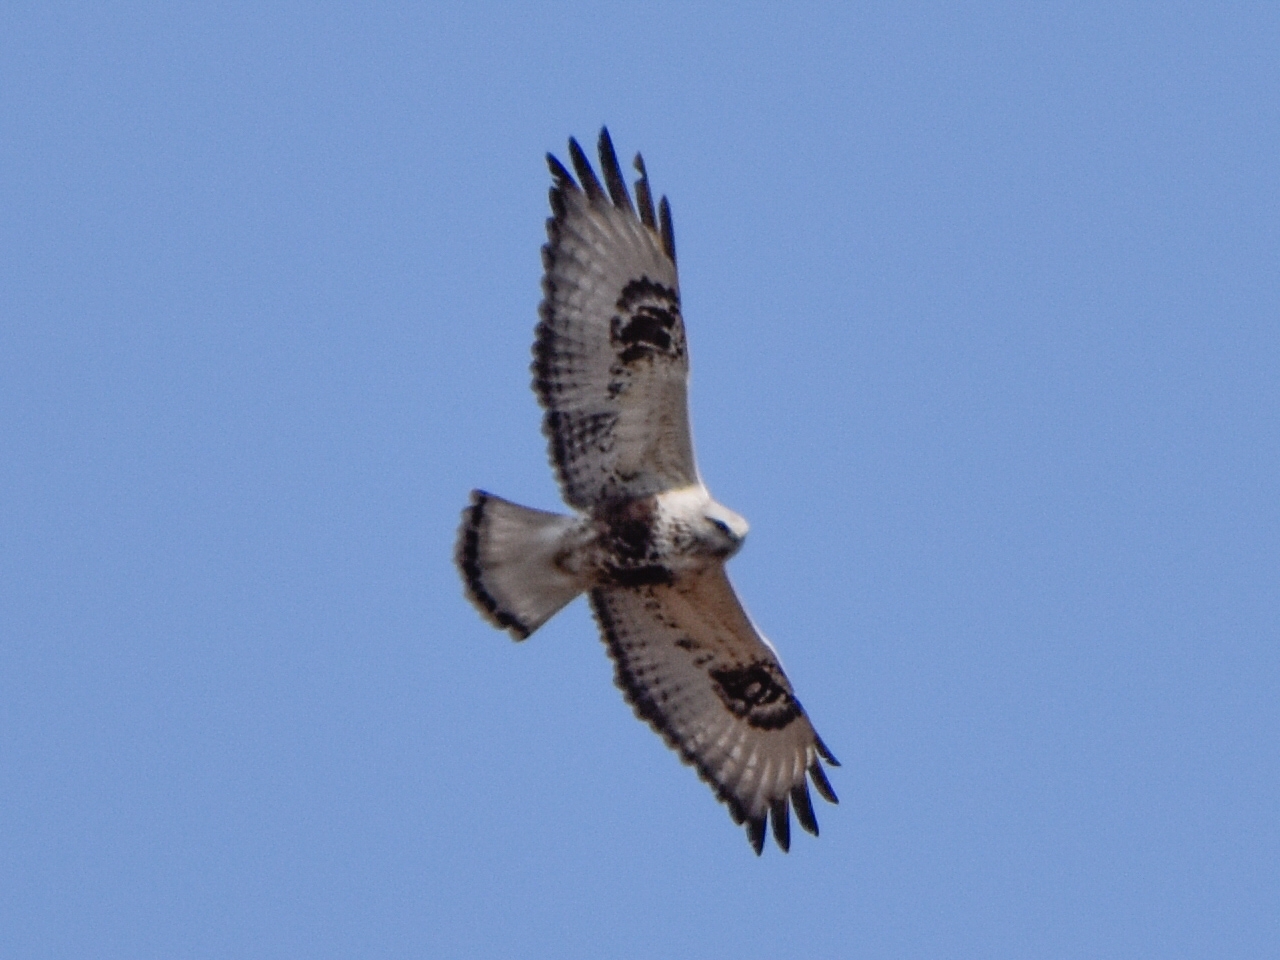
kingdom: Animalia
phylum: Chordata
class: Aves
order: Accipitriformes
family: Accipitridae
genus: Buteo
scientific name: Buteo lagopus
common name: Rough-legged buzzard
